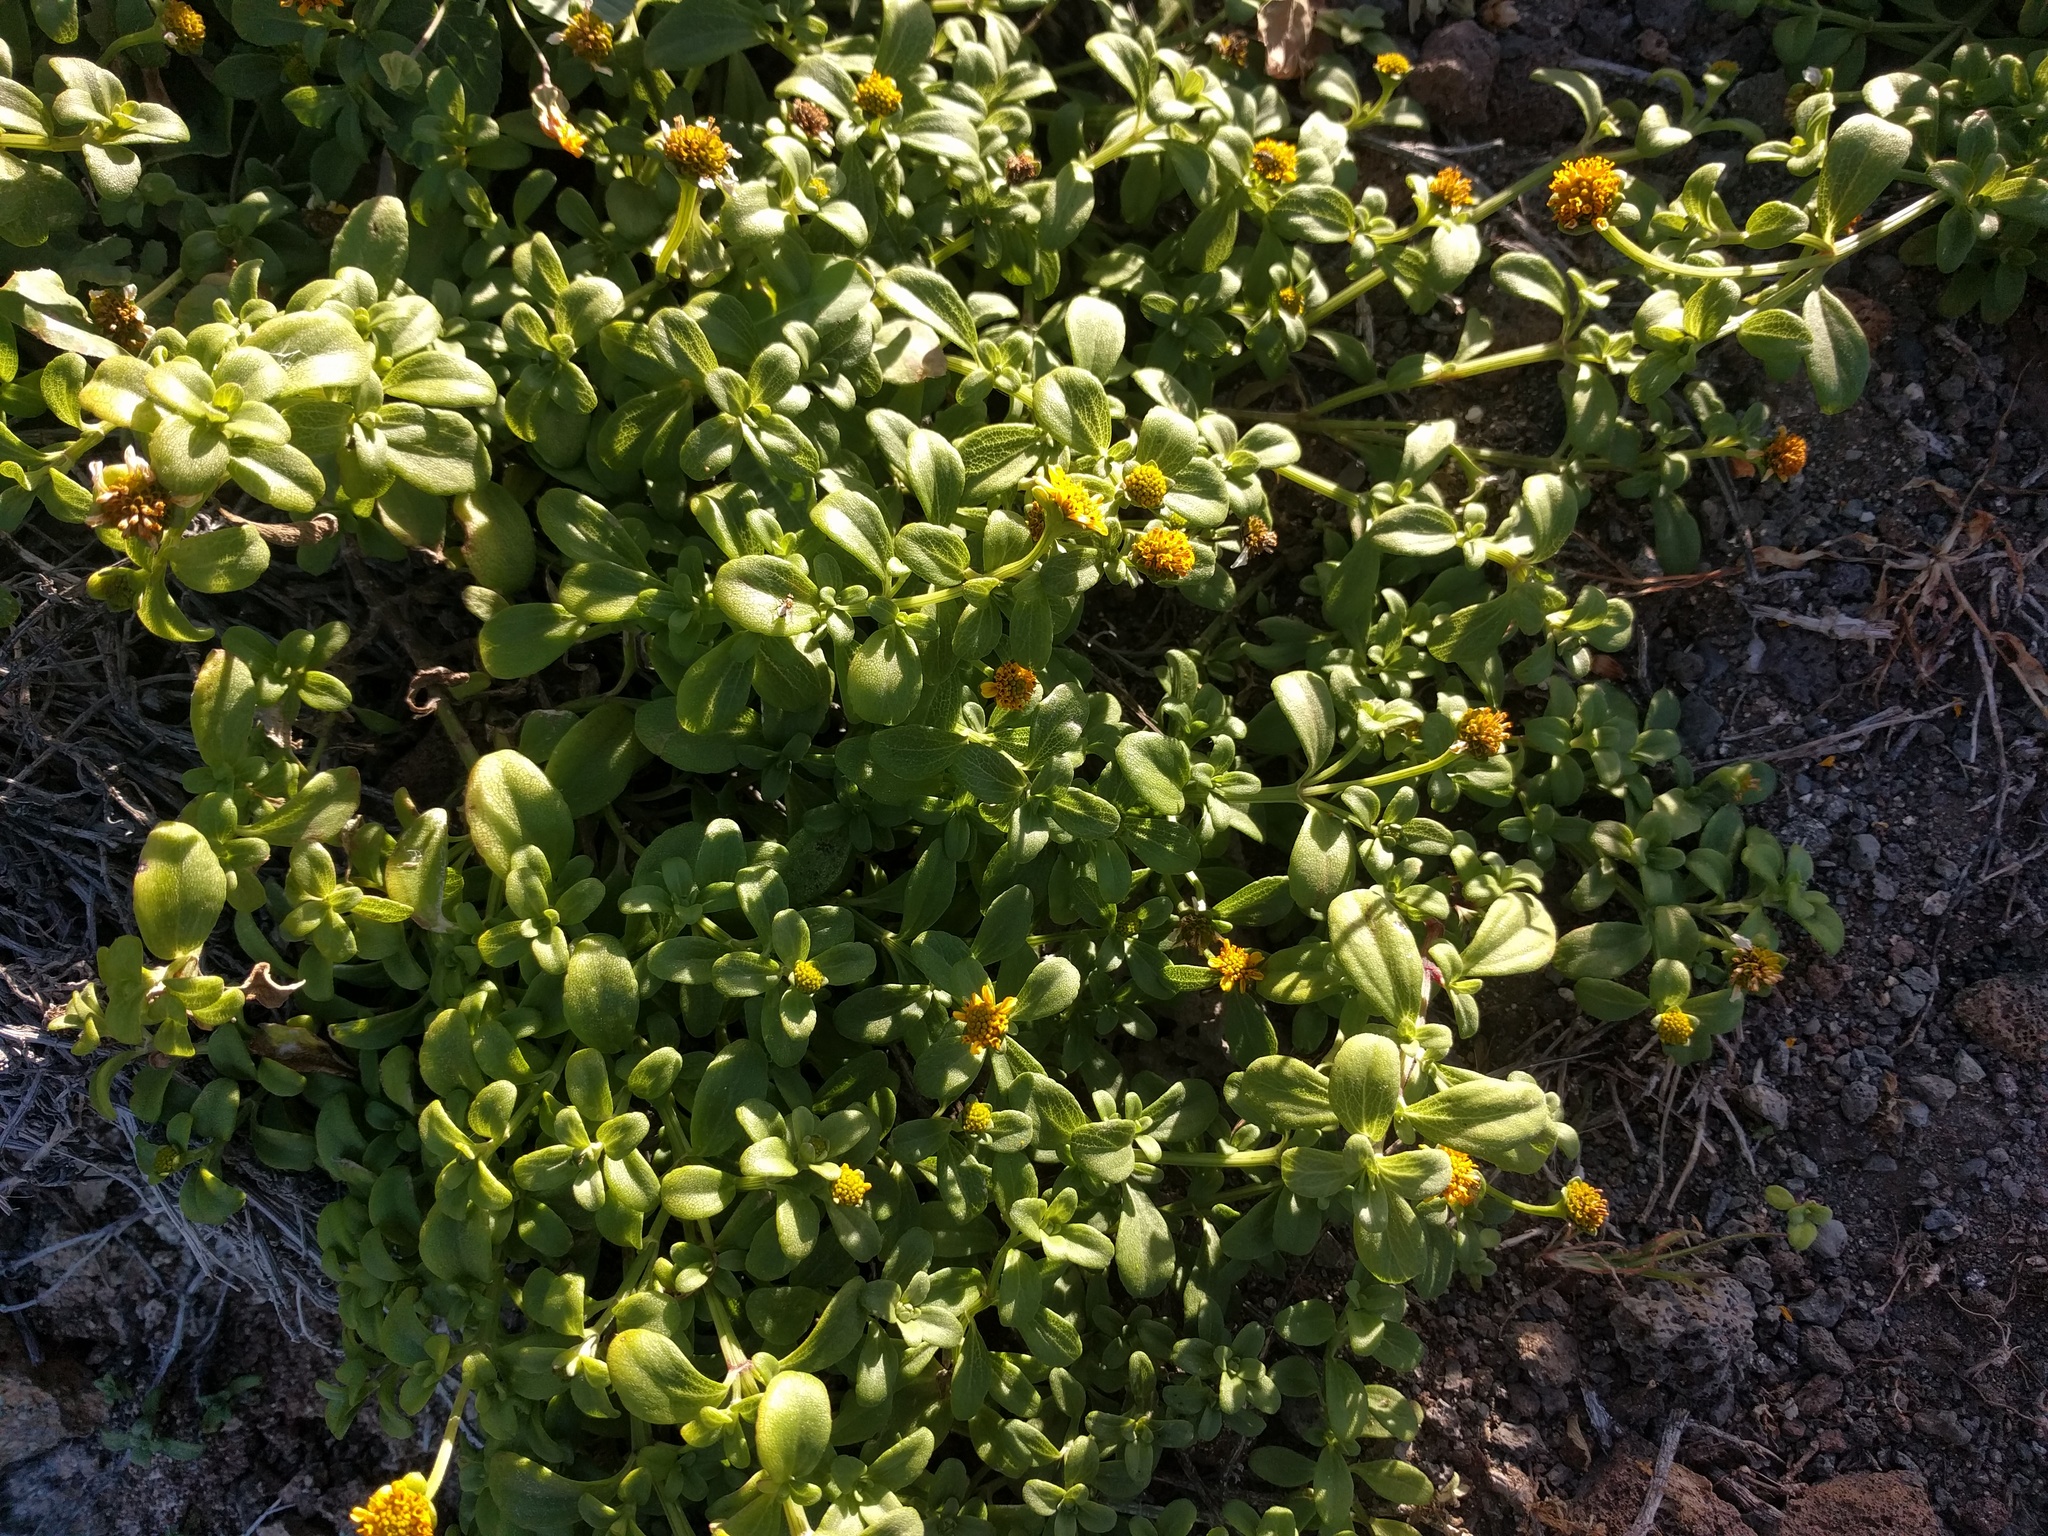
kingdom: Plantae
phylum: Tracheophyta
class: Magnoliopsida
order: Asterales
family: Asteraceae
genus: Lipochaeta
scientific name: Lipochaeta integrifolia
